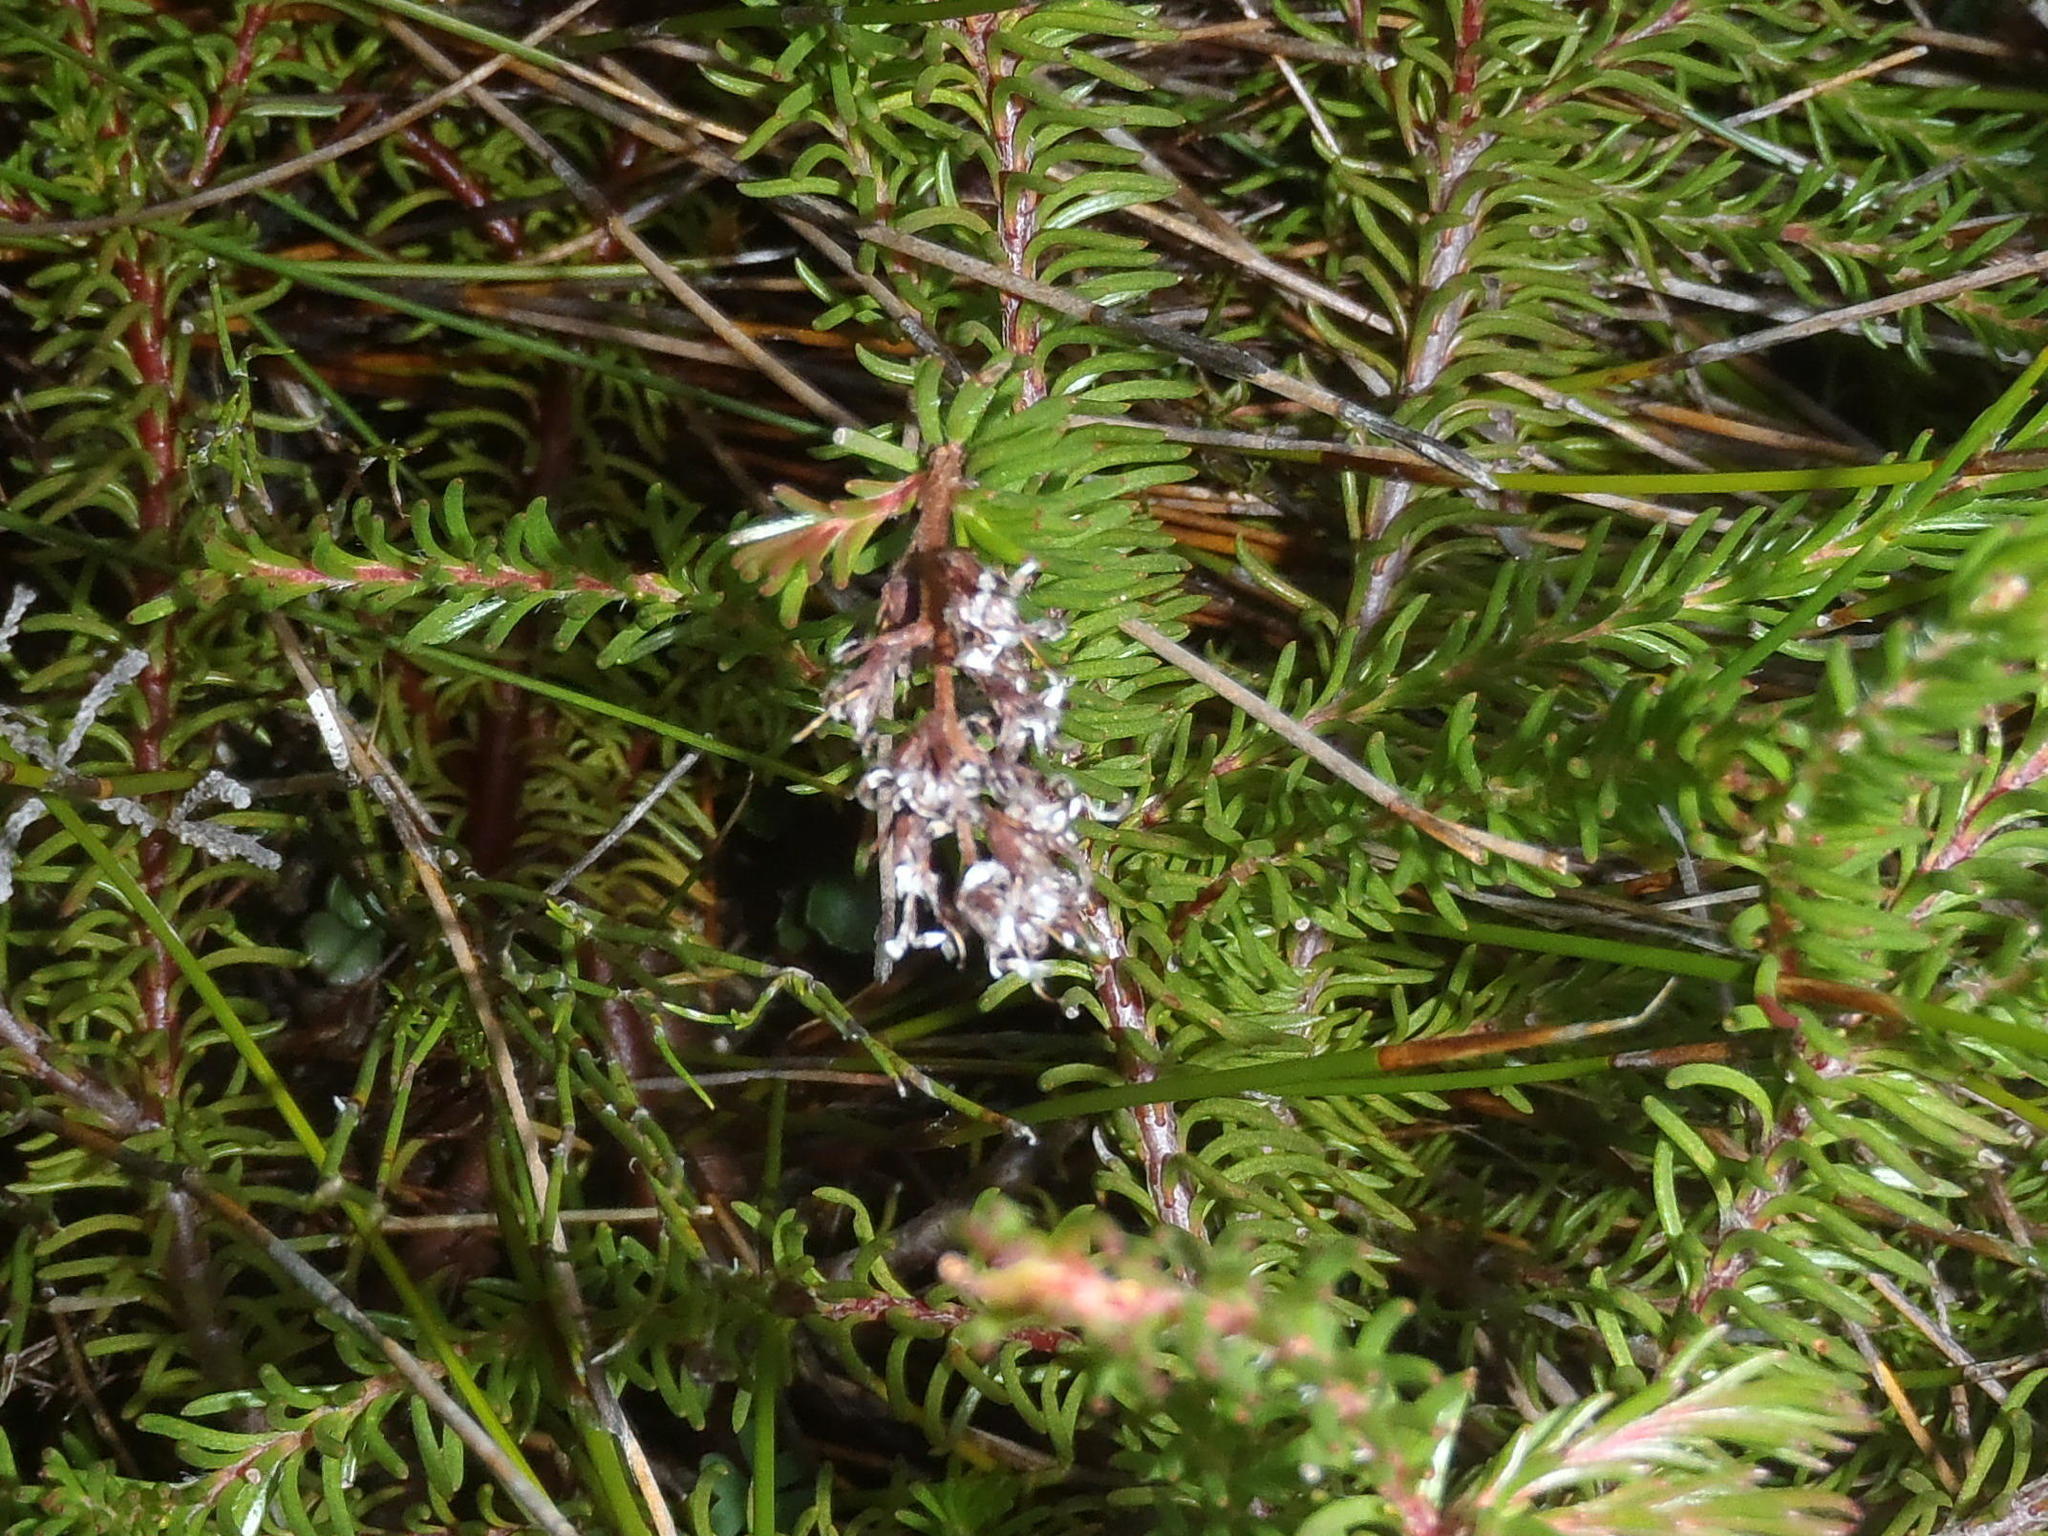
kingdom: Plantae
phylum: Tracheophyta
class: Magnoliopsida
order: Proteales
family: Proteaceae
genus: Spatalla
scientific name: Spatalla confusa
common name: Long-tube spoon
